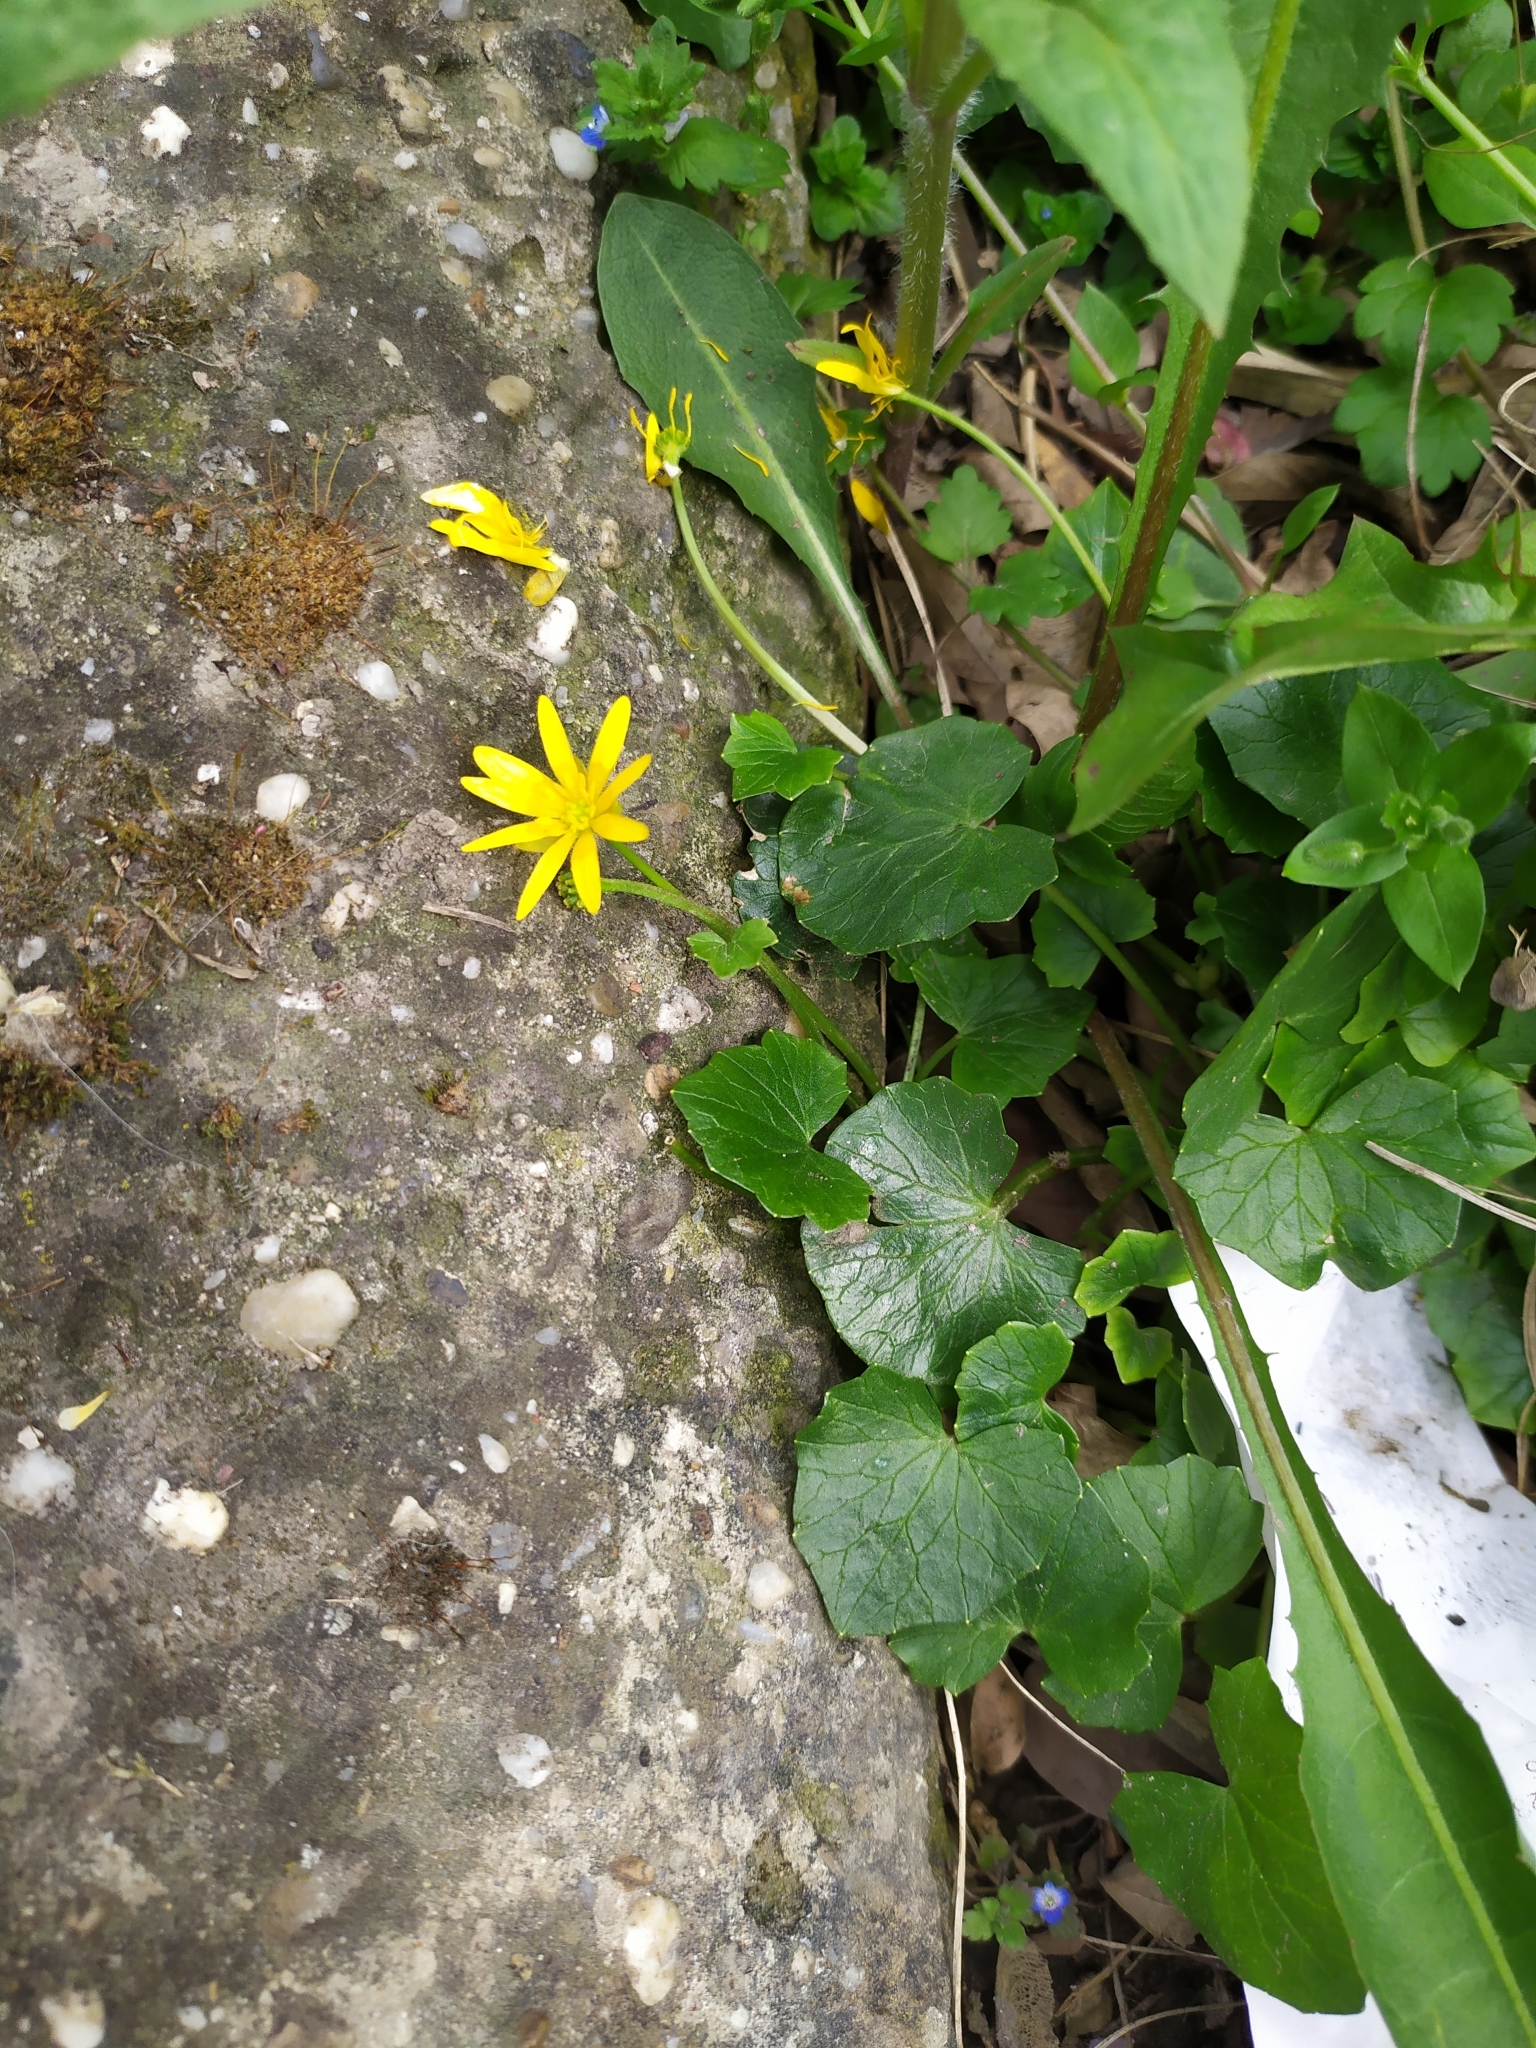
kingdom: Plantae
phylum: Tracheophyta
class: Magnoliopsida
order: Ranunculales
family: Ranunculaceae
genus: Ficaria
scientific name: Ficaria verna
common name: Lesser celandine
